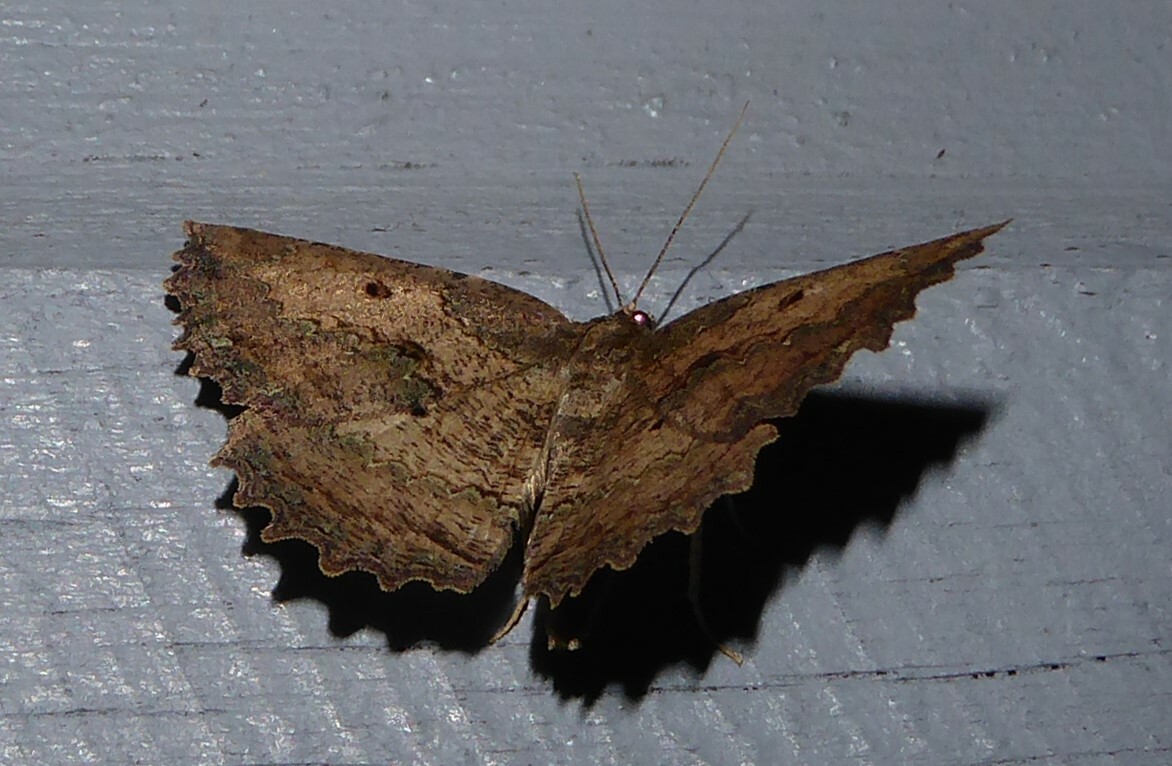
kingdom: Animalia
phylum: Arthropoda
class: Insecta
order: Lepidoptera
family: Geometridae
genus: Gellonia
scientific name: Gellonia pannularia
